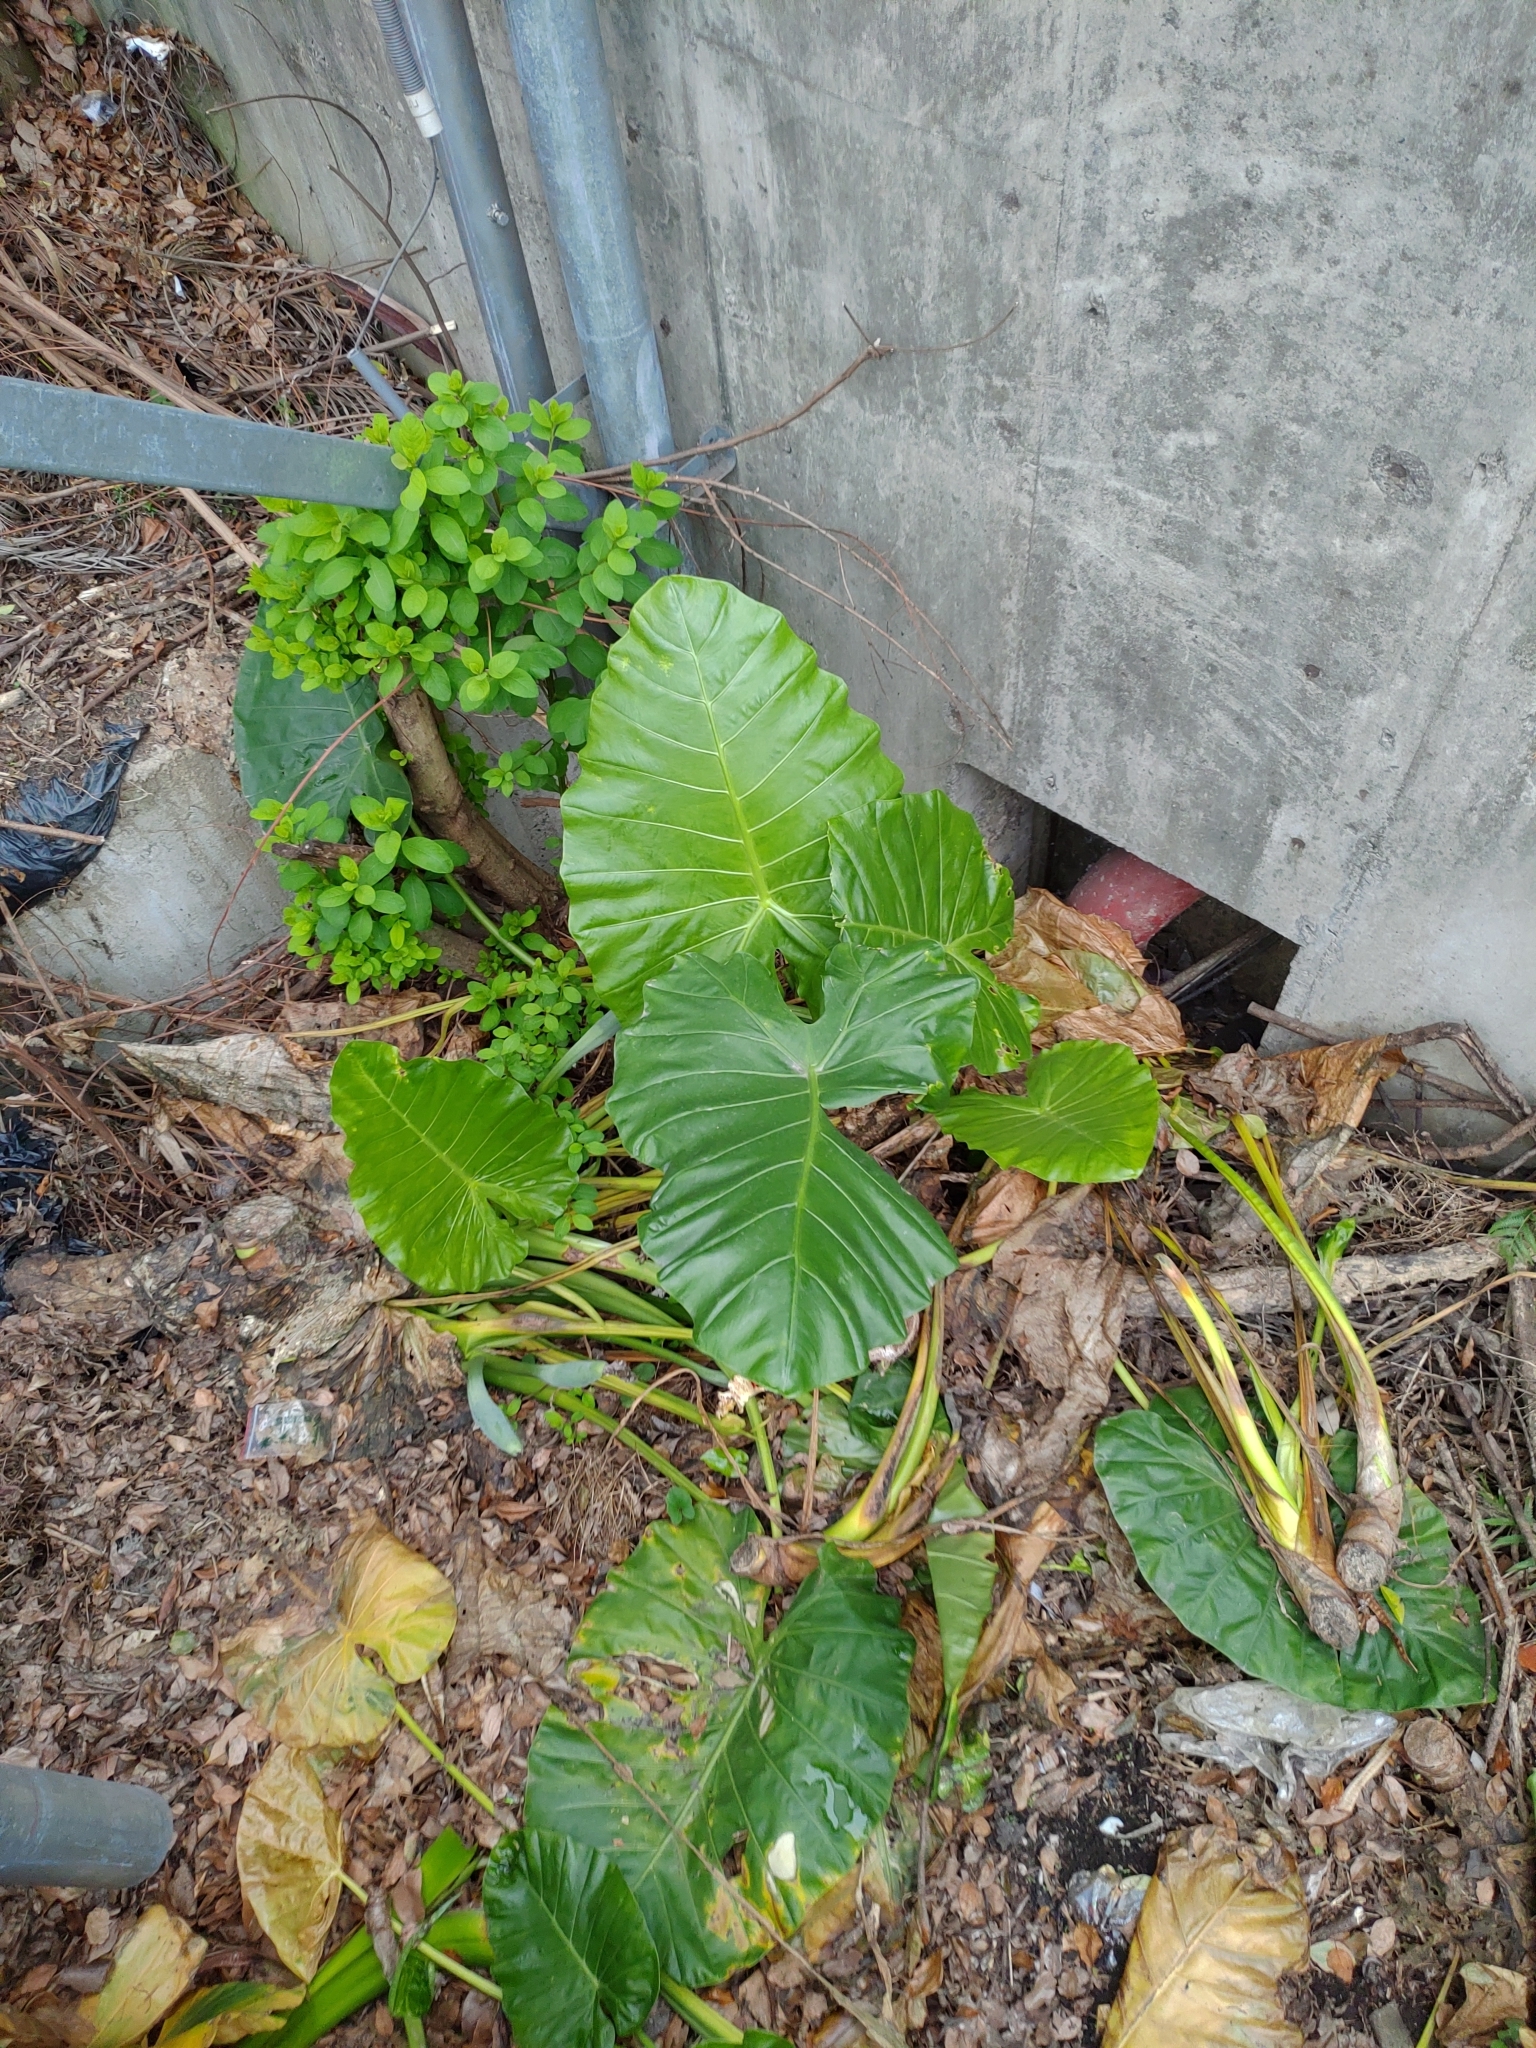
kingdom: Plantae
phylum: Tracheophyta
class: Liliopsida
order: Alismatales
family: Araceae
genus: Alocasia
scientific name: Alocasia odora
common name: Asian taro
